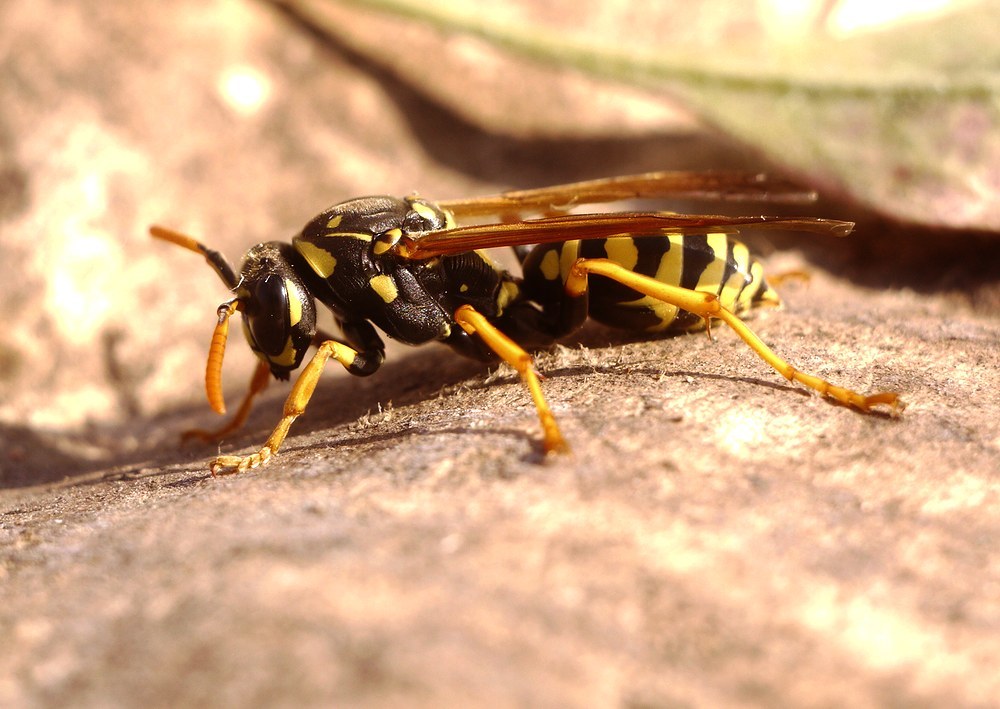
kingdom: Animalia
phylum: Arthropoda
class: Insecta
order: Hymenoptera
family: Eumenidae
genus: Polistes
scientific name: Polistes dominula
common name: Paper wasp
